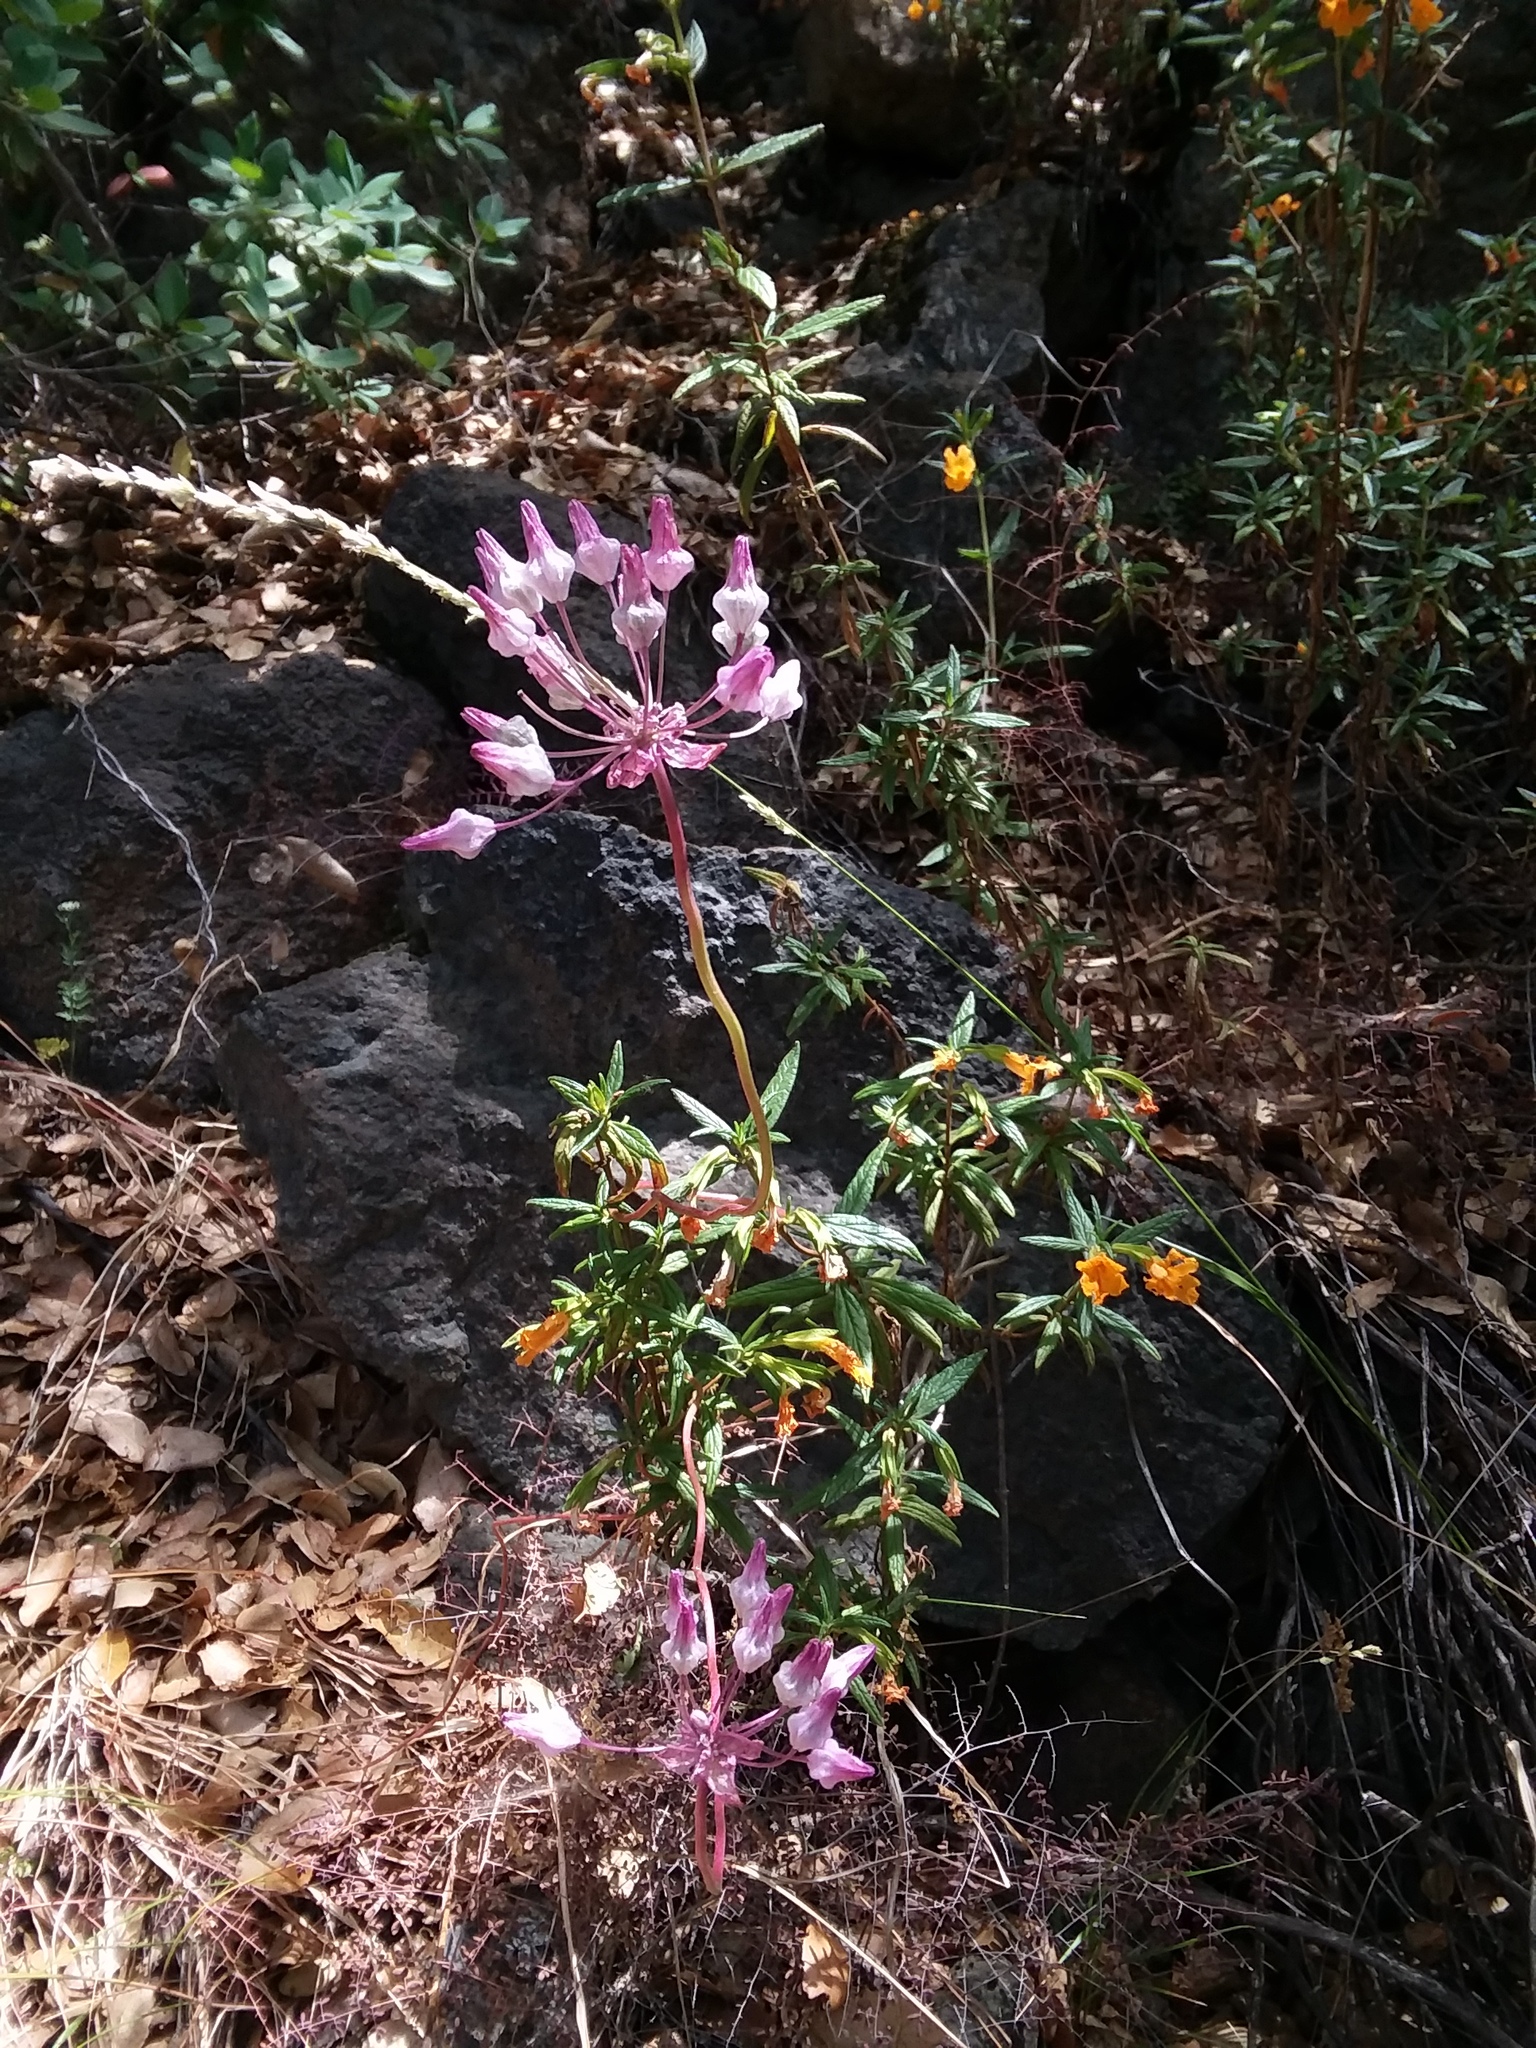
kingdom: Plantae
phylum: Tracheophyta
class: Liliopsida
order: Asparagales
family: Asparagaceae
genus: Dichelostemma
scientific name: Dichelostemma volubile
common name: Trining brodiaea
